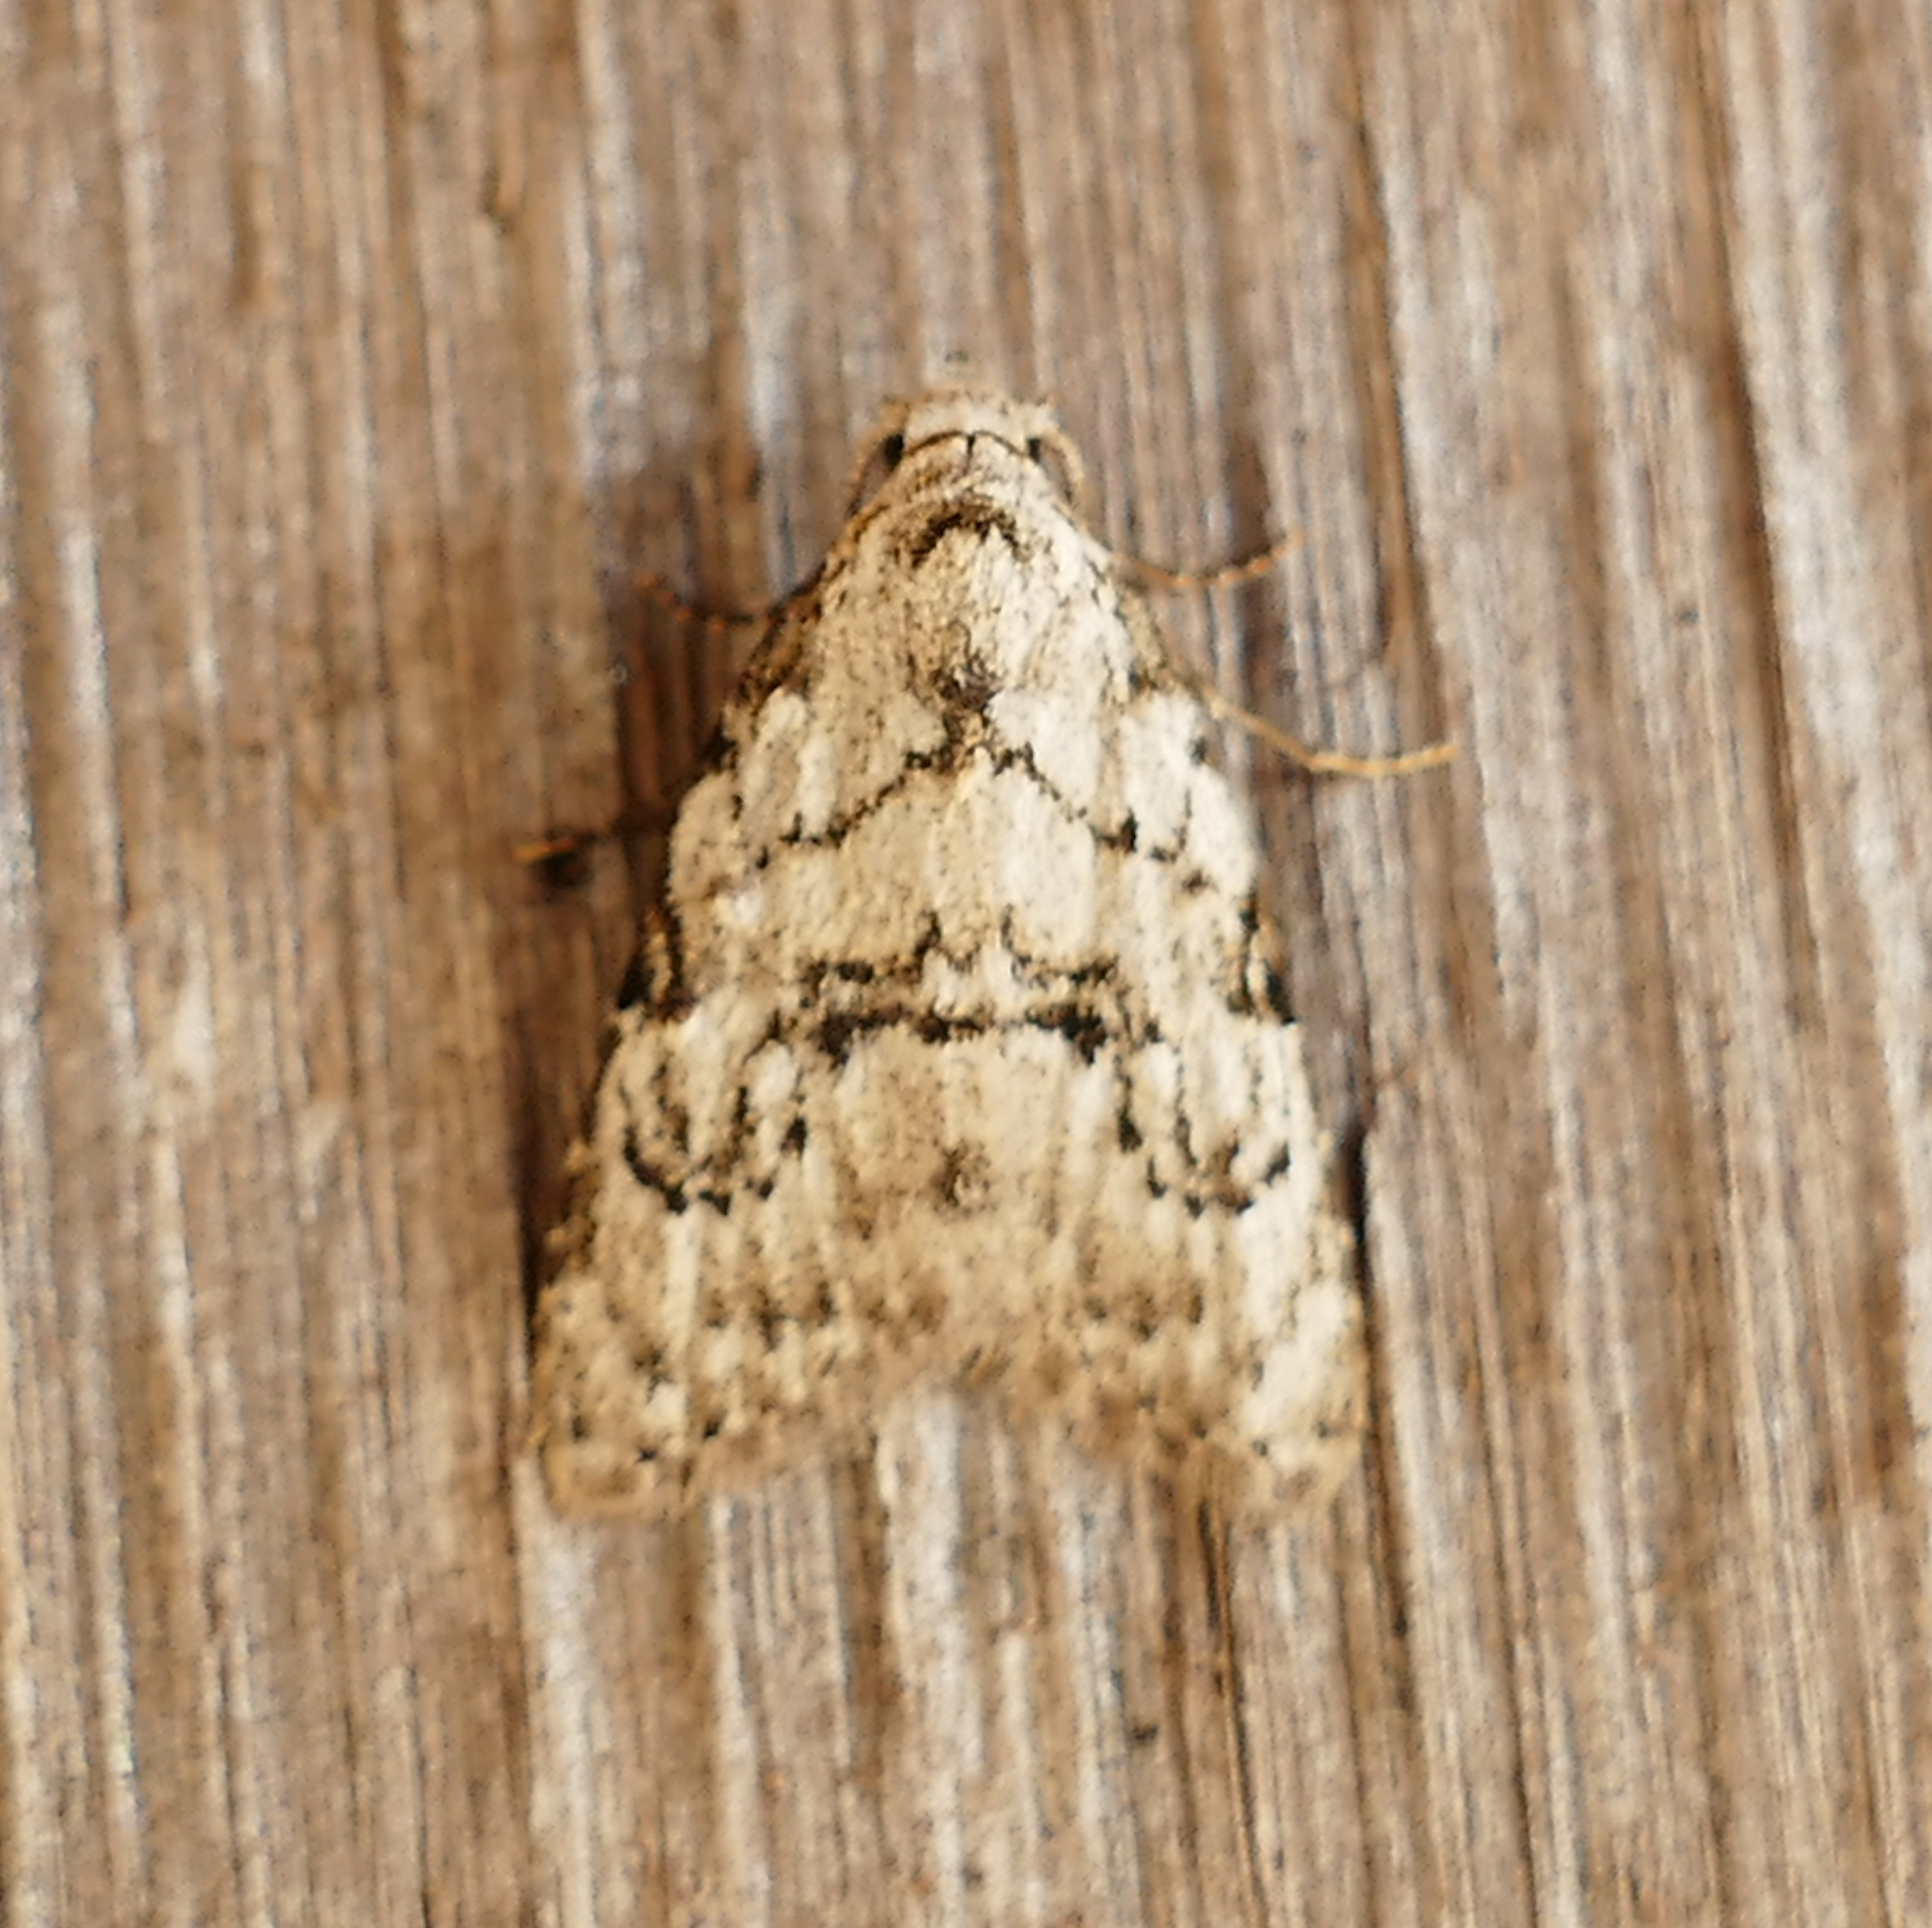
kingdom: Animalia
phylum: Arthropoda
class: Insecta
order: Lepidoptera
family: Nolidae
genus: Meganola
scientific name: Meganola minuscula
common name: Confused meganola moth
